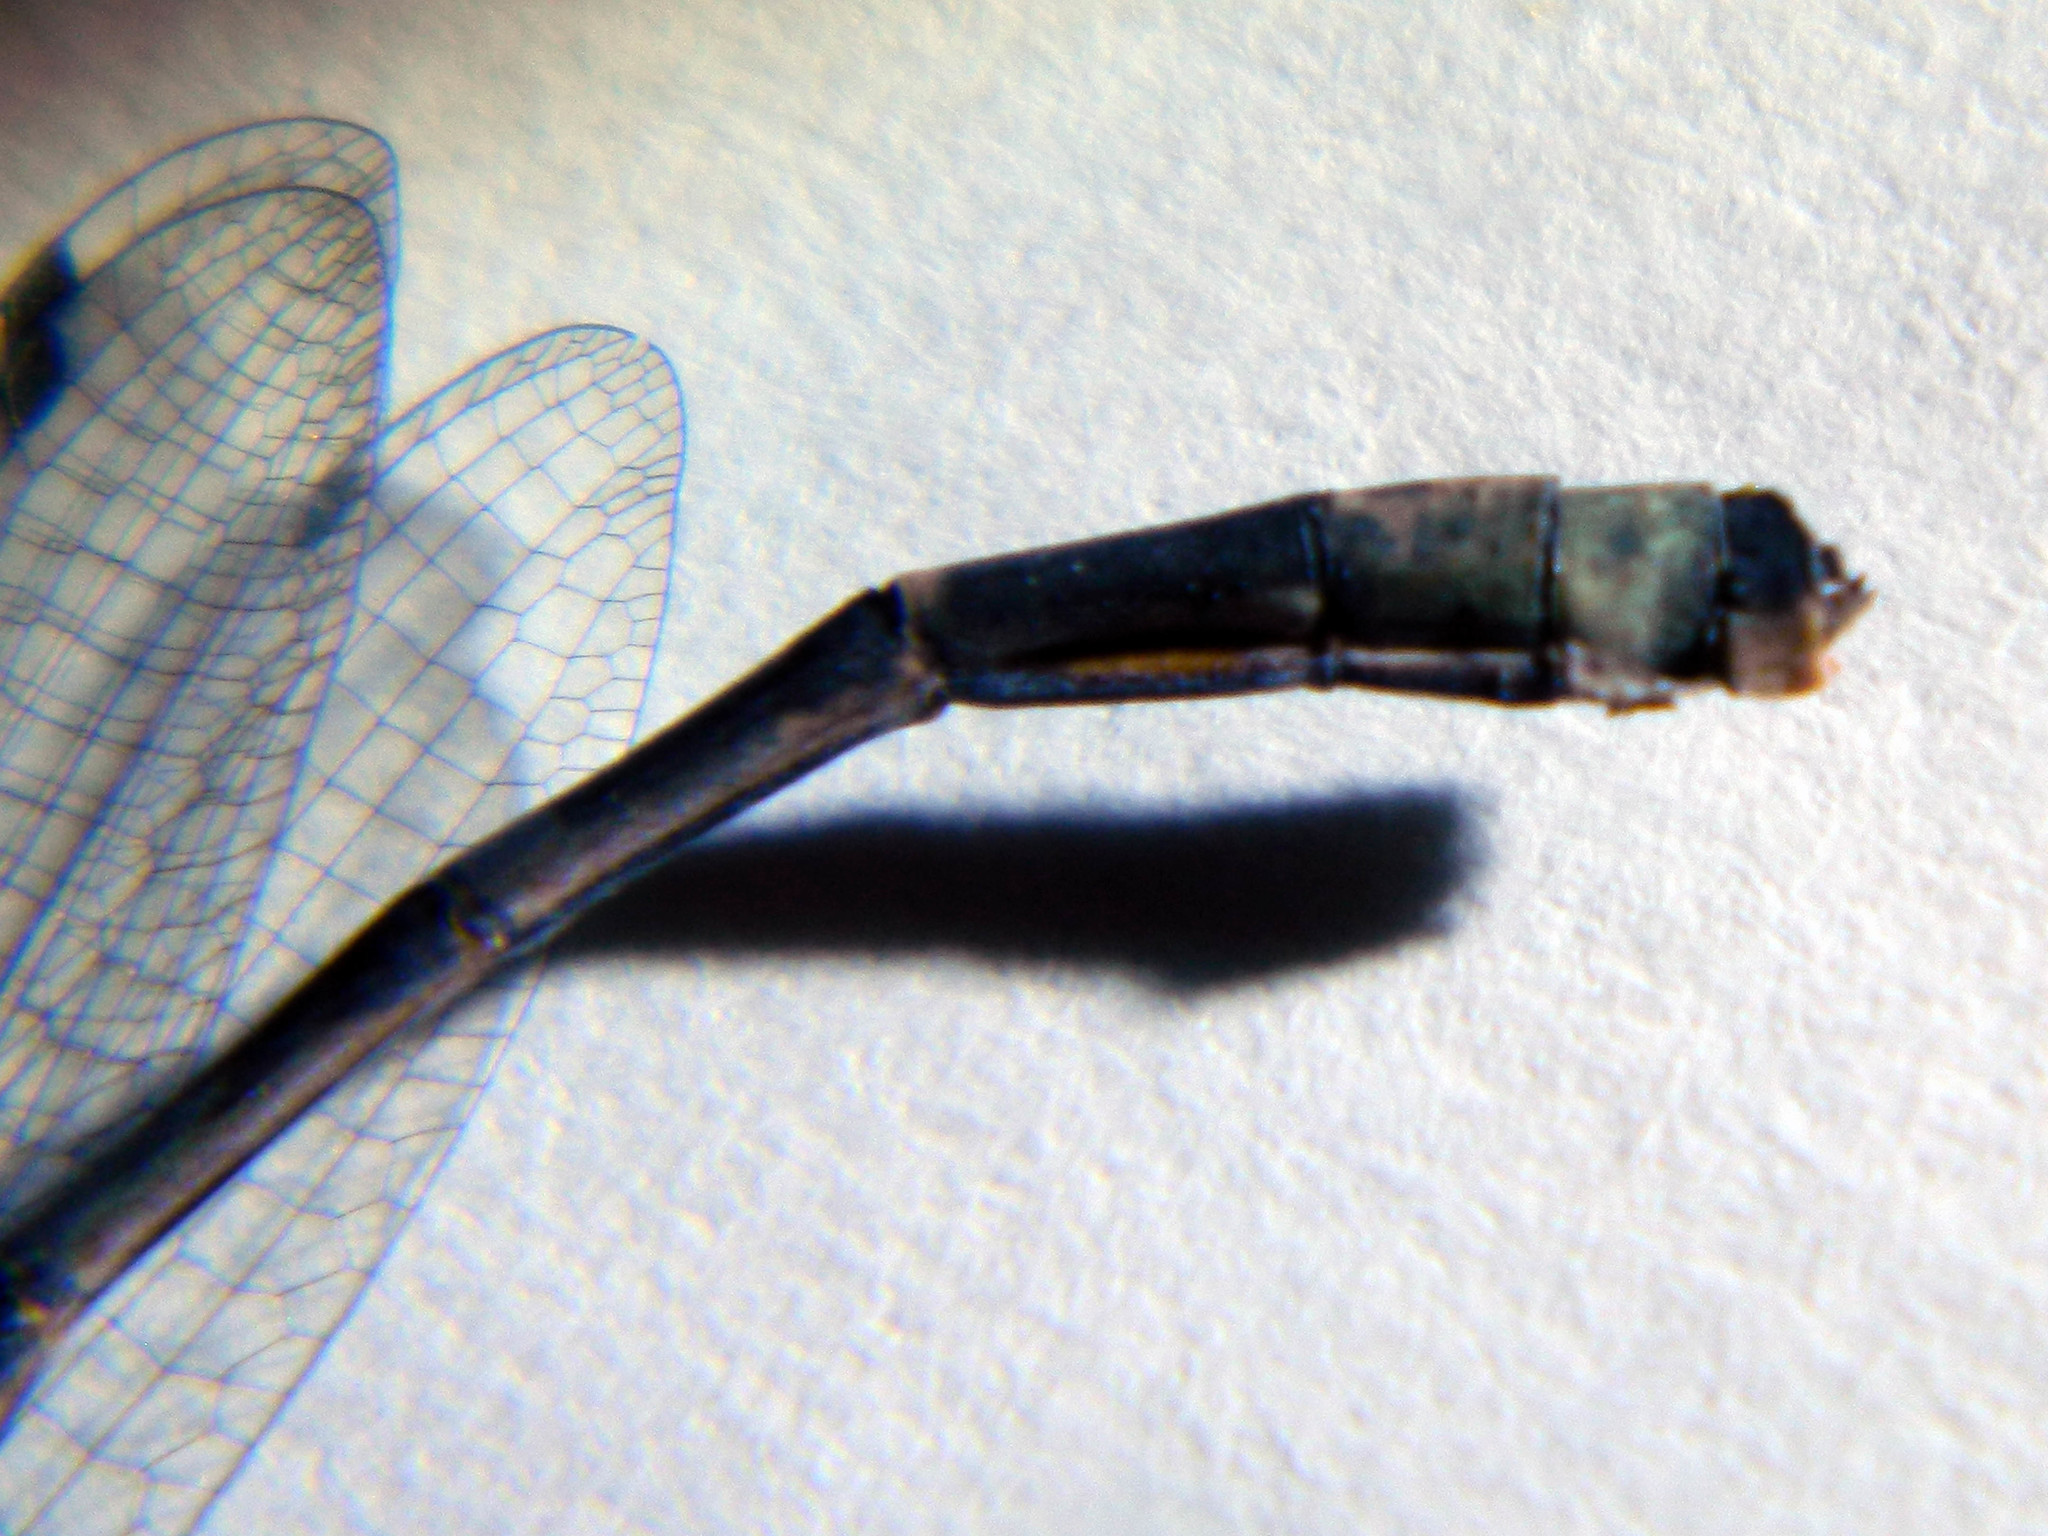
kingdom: Animalia
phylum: Arthropoda
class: Insecta
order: Odonata
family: Coenagrionidae
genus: Enallagma
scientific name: Enallagma annexum
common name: Northern bluet
